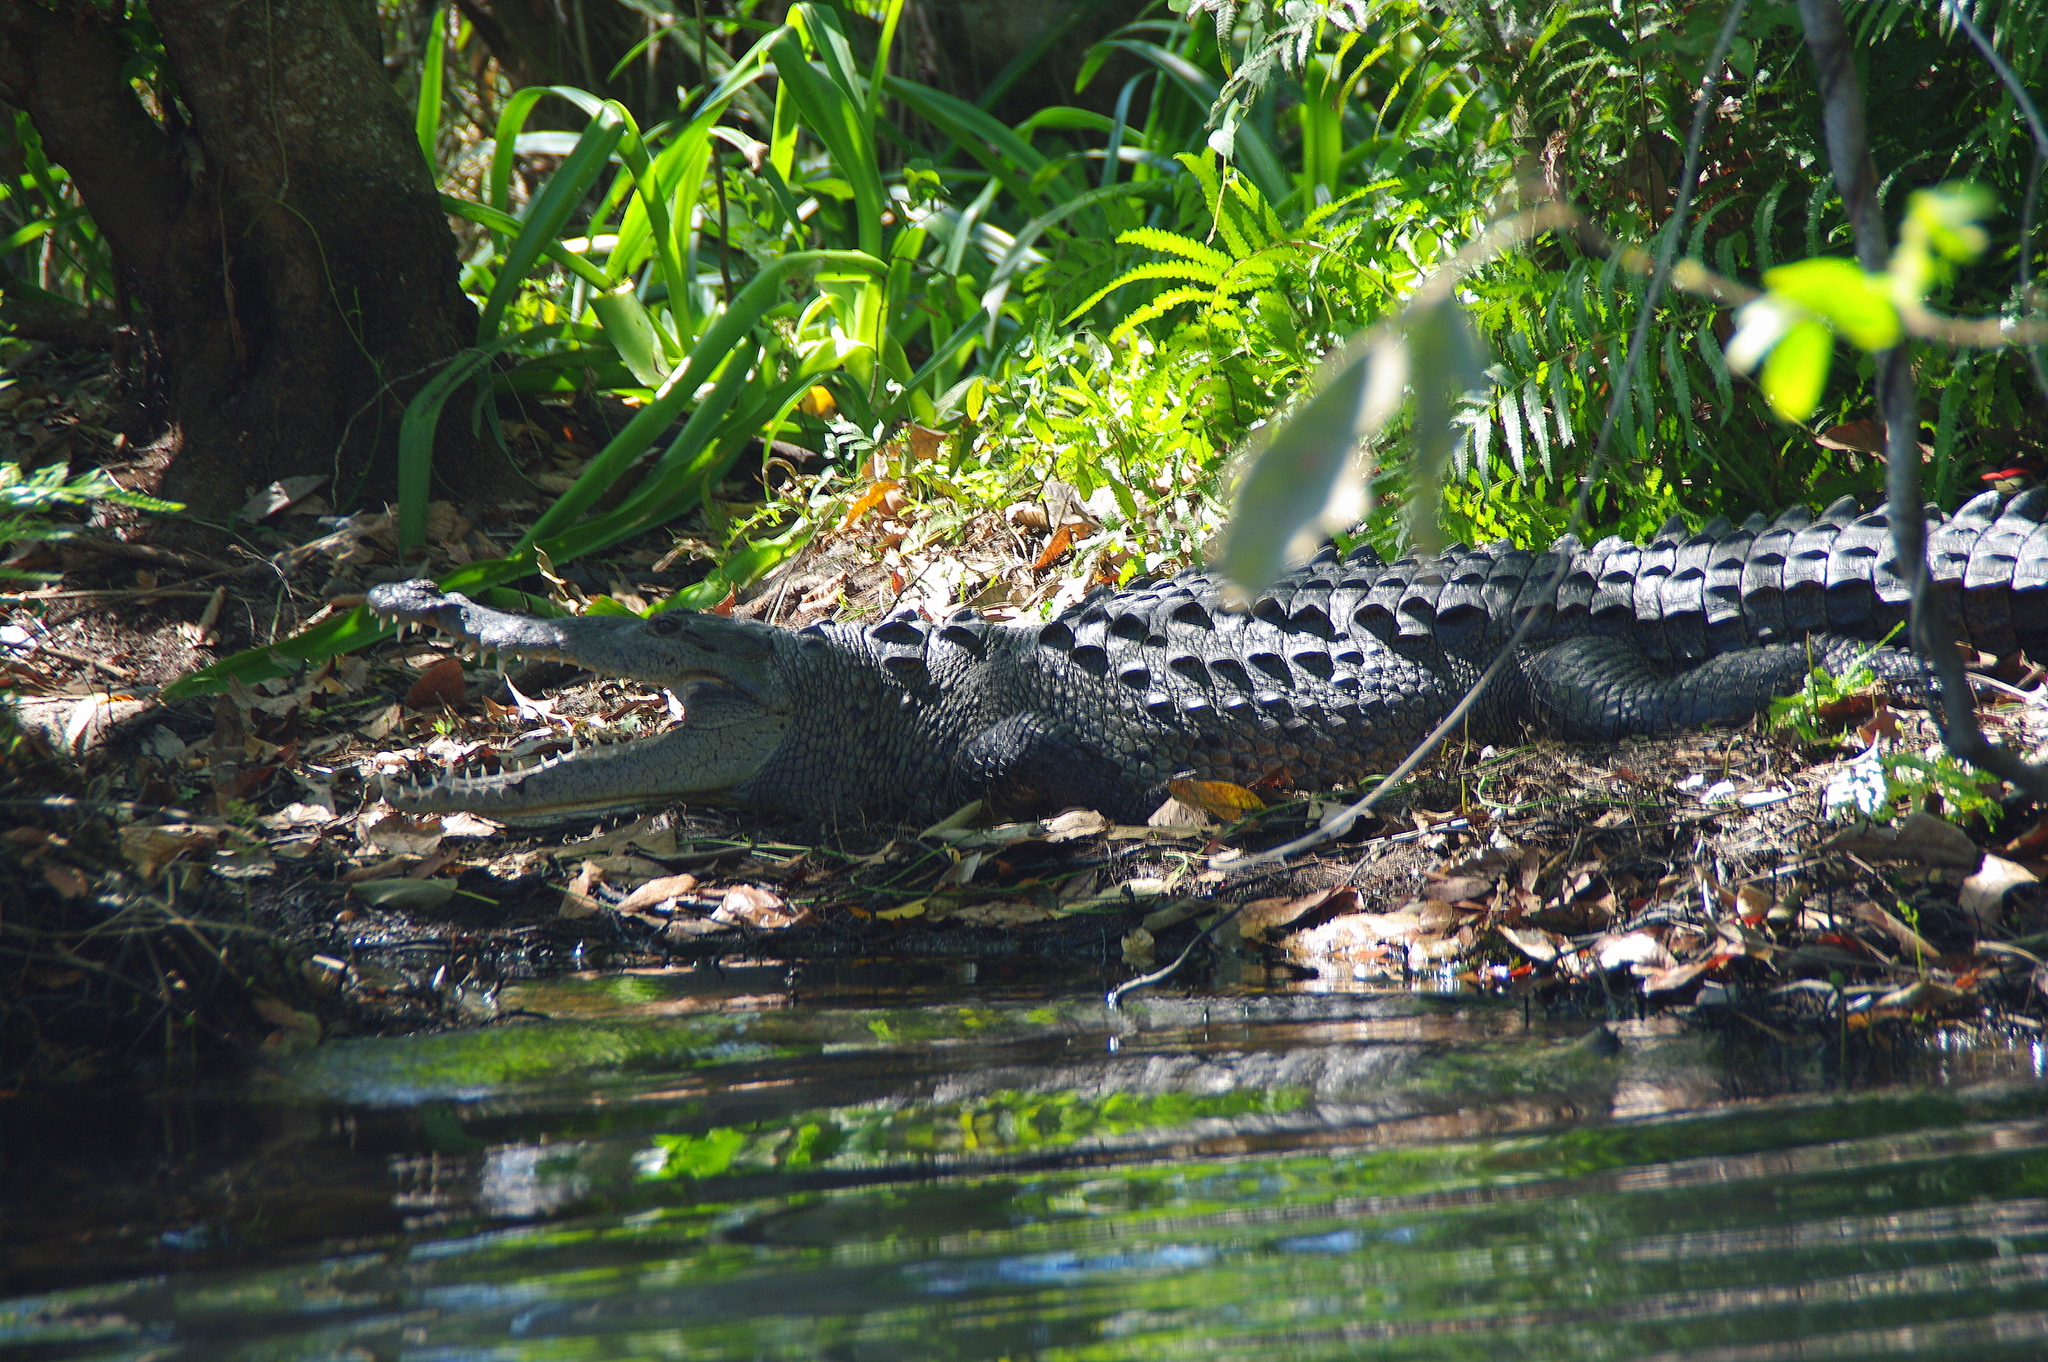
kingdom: Animalia
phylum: Chordata
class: Crocodylia
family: Crocodylidae
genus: Crocodylus
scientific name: Crocodylus acutus
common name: American crocodile
